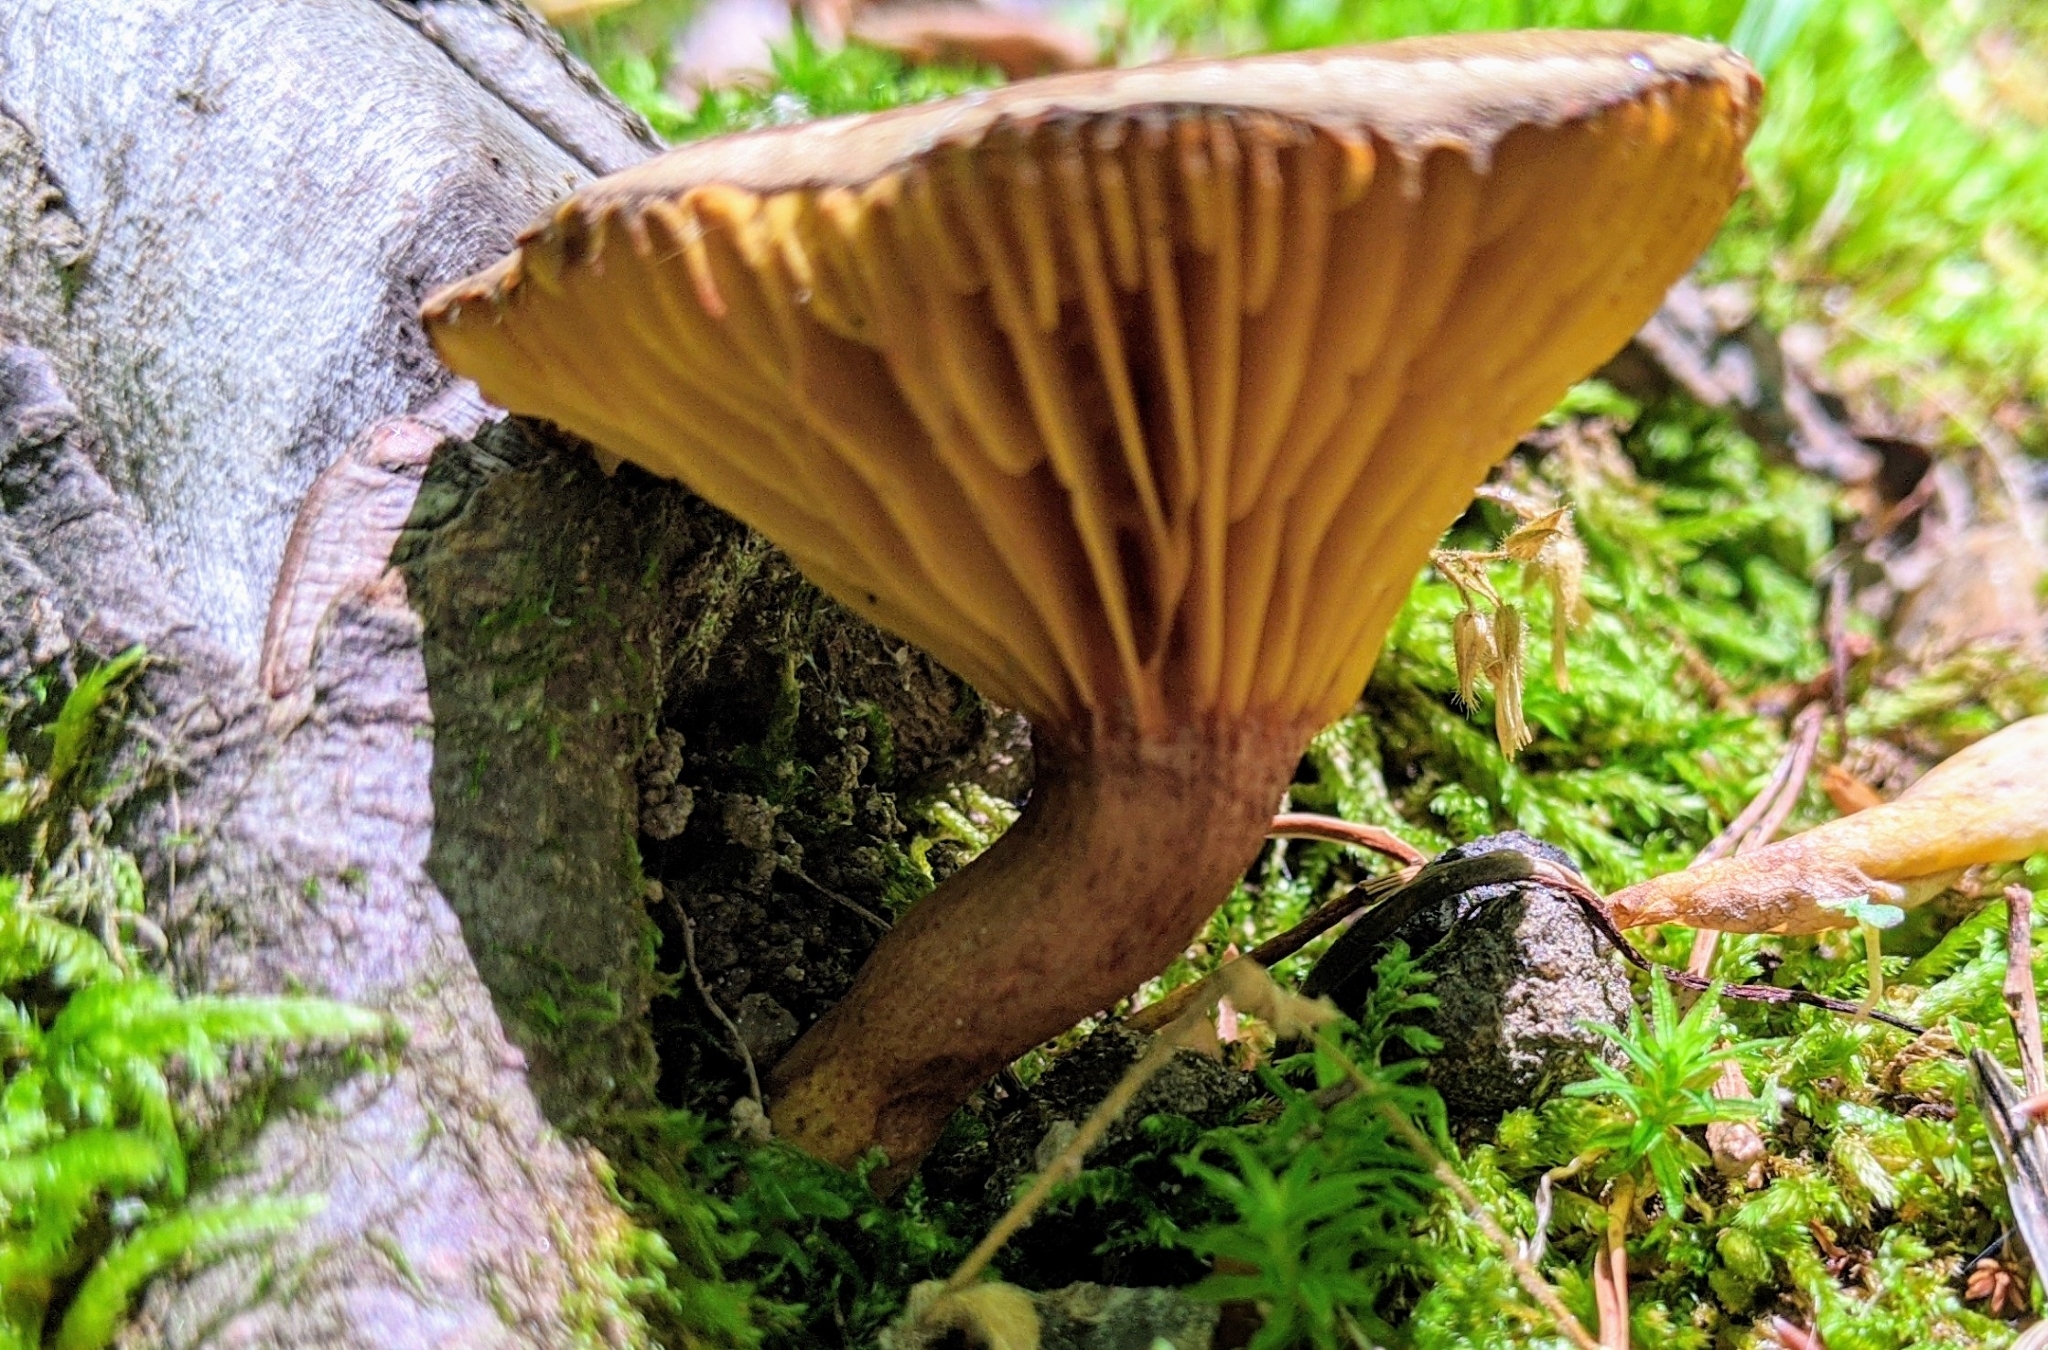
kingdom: Fungi
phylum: Basidiomycota
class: Agaricomycetes
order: Boletales
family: Boletaceae
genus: Phylloporus
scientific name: Phylloporus rhodoxanthus
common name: Golden gilled bolete
